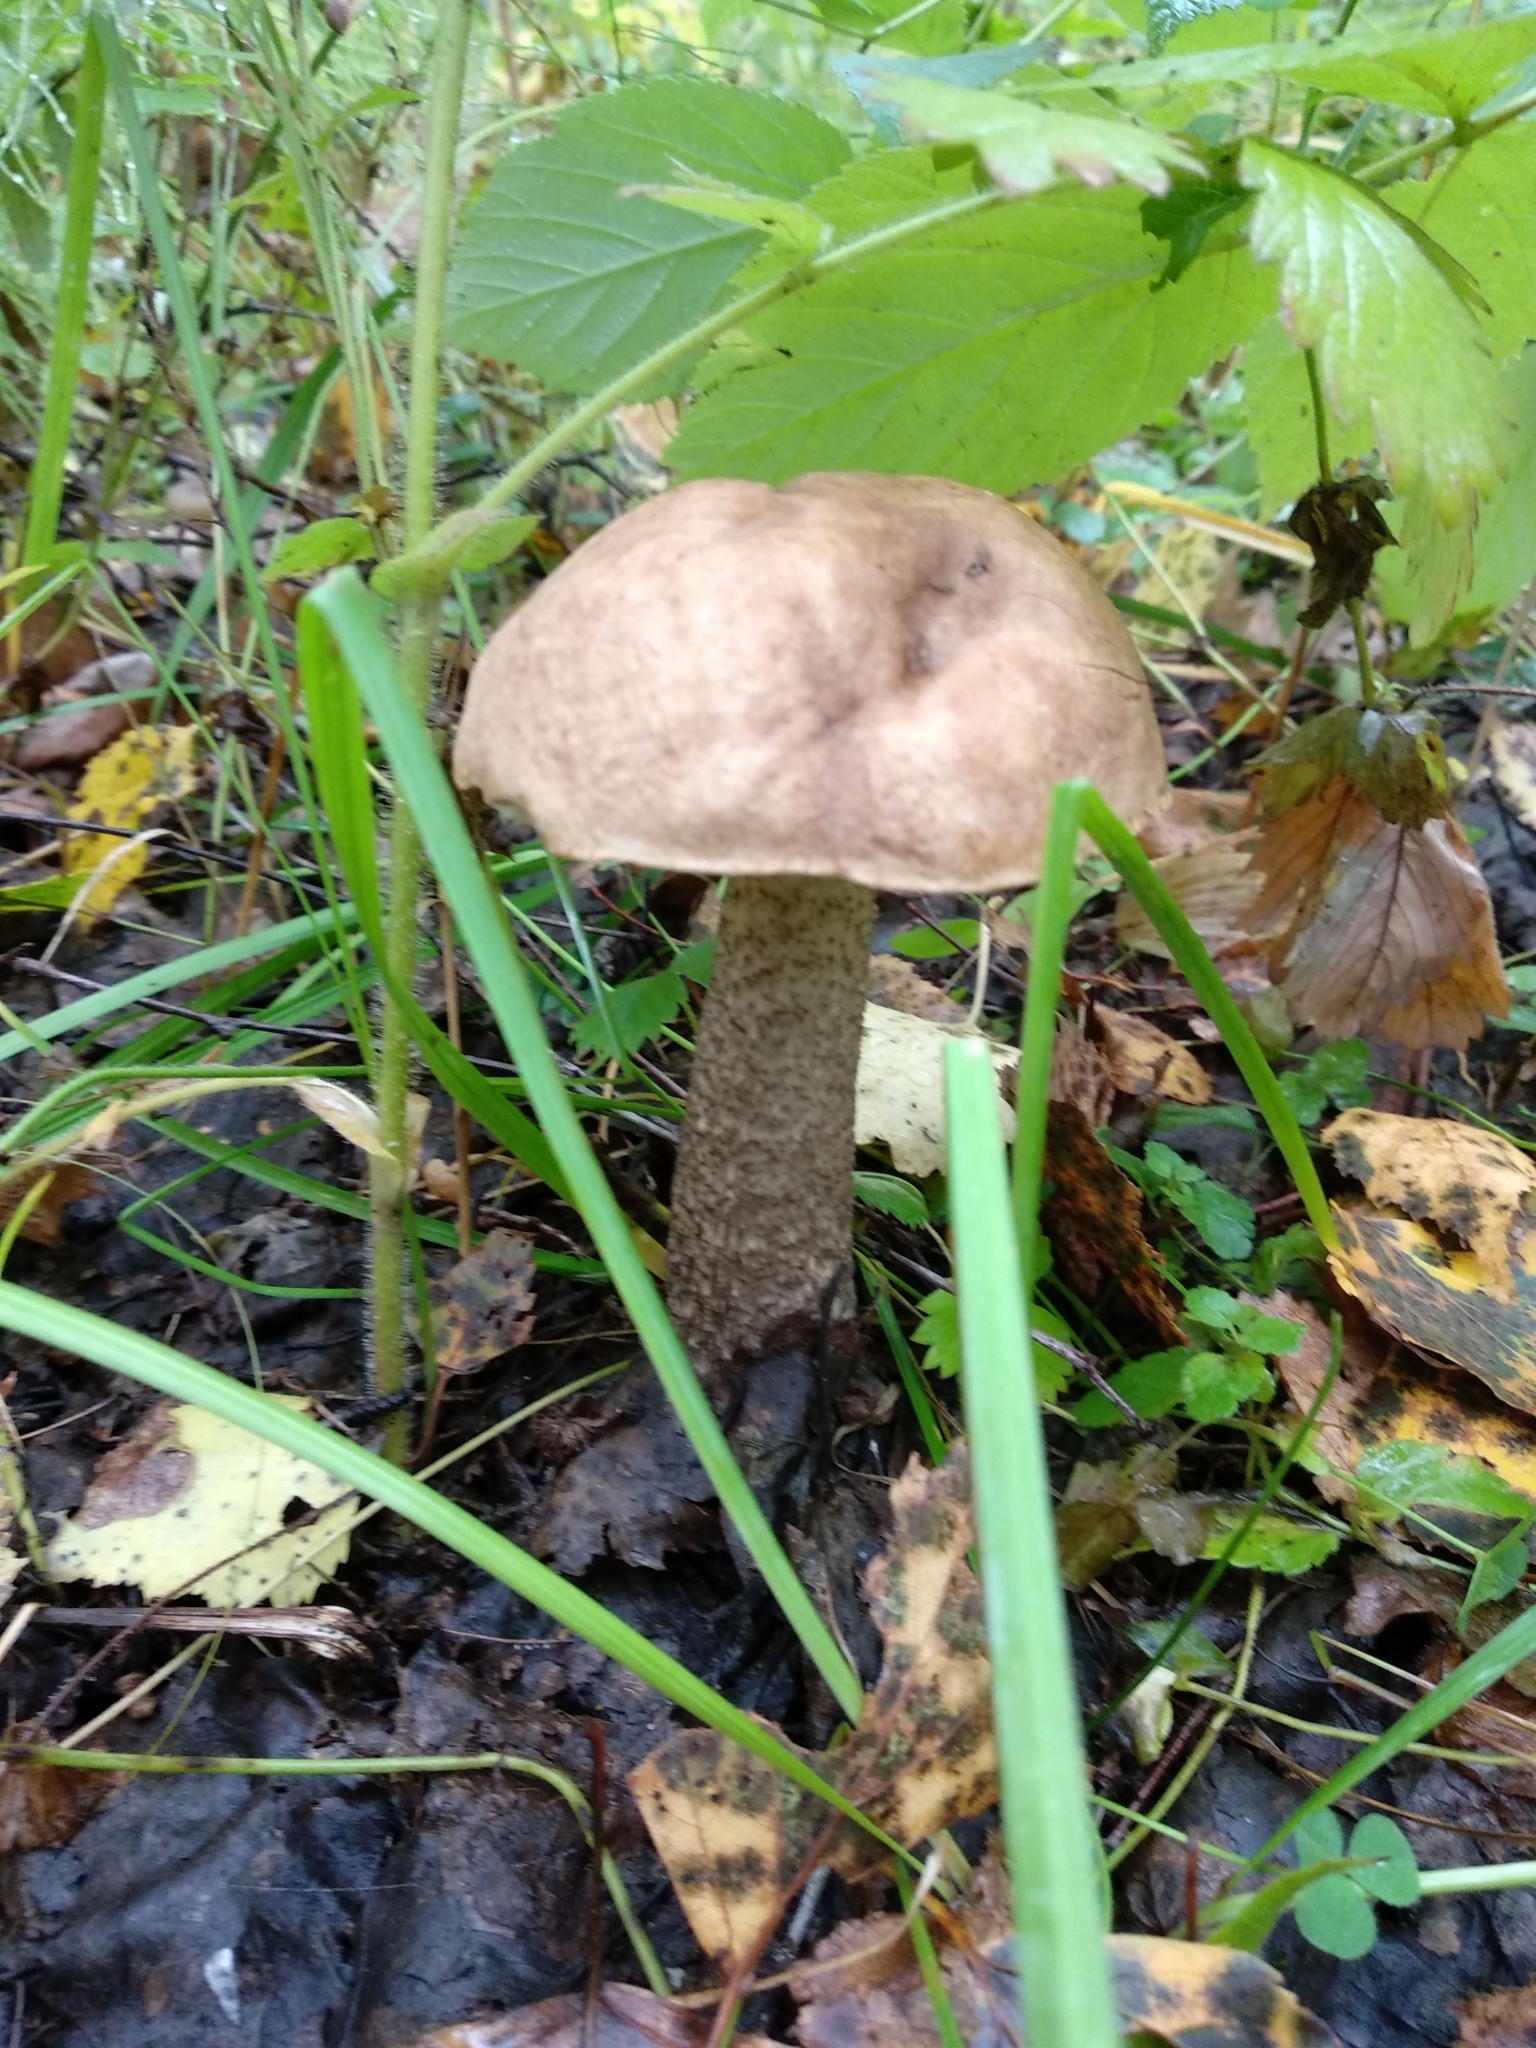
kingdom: Fungi
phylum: Basidiomycota
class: Agaricomycetes
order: Boletales
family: Boletaceae
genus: Leccinum
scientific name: Leccinum scabrum
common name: Blushing bolete
